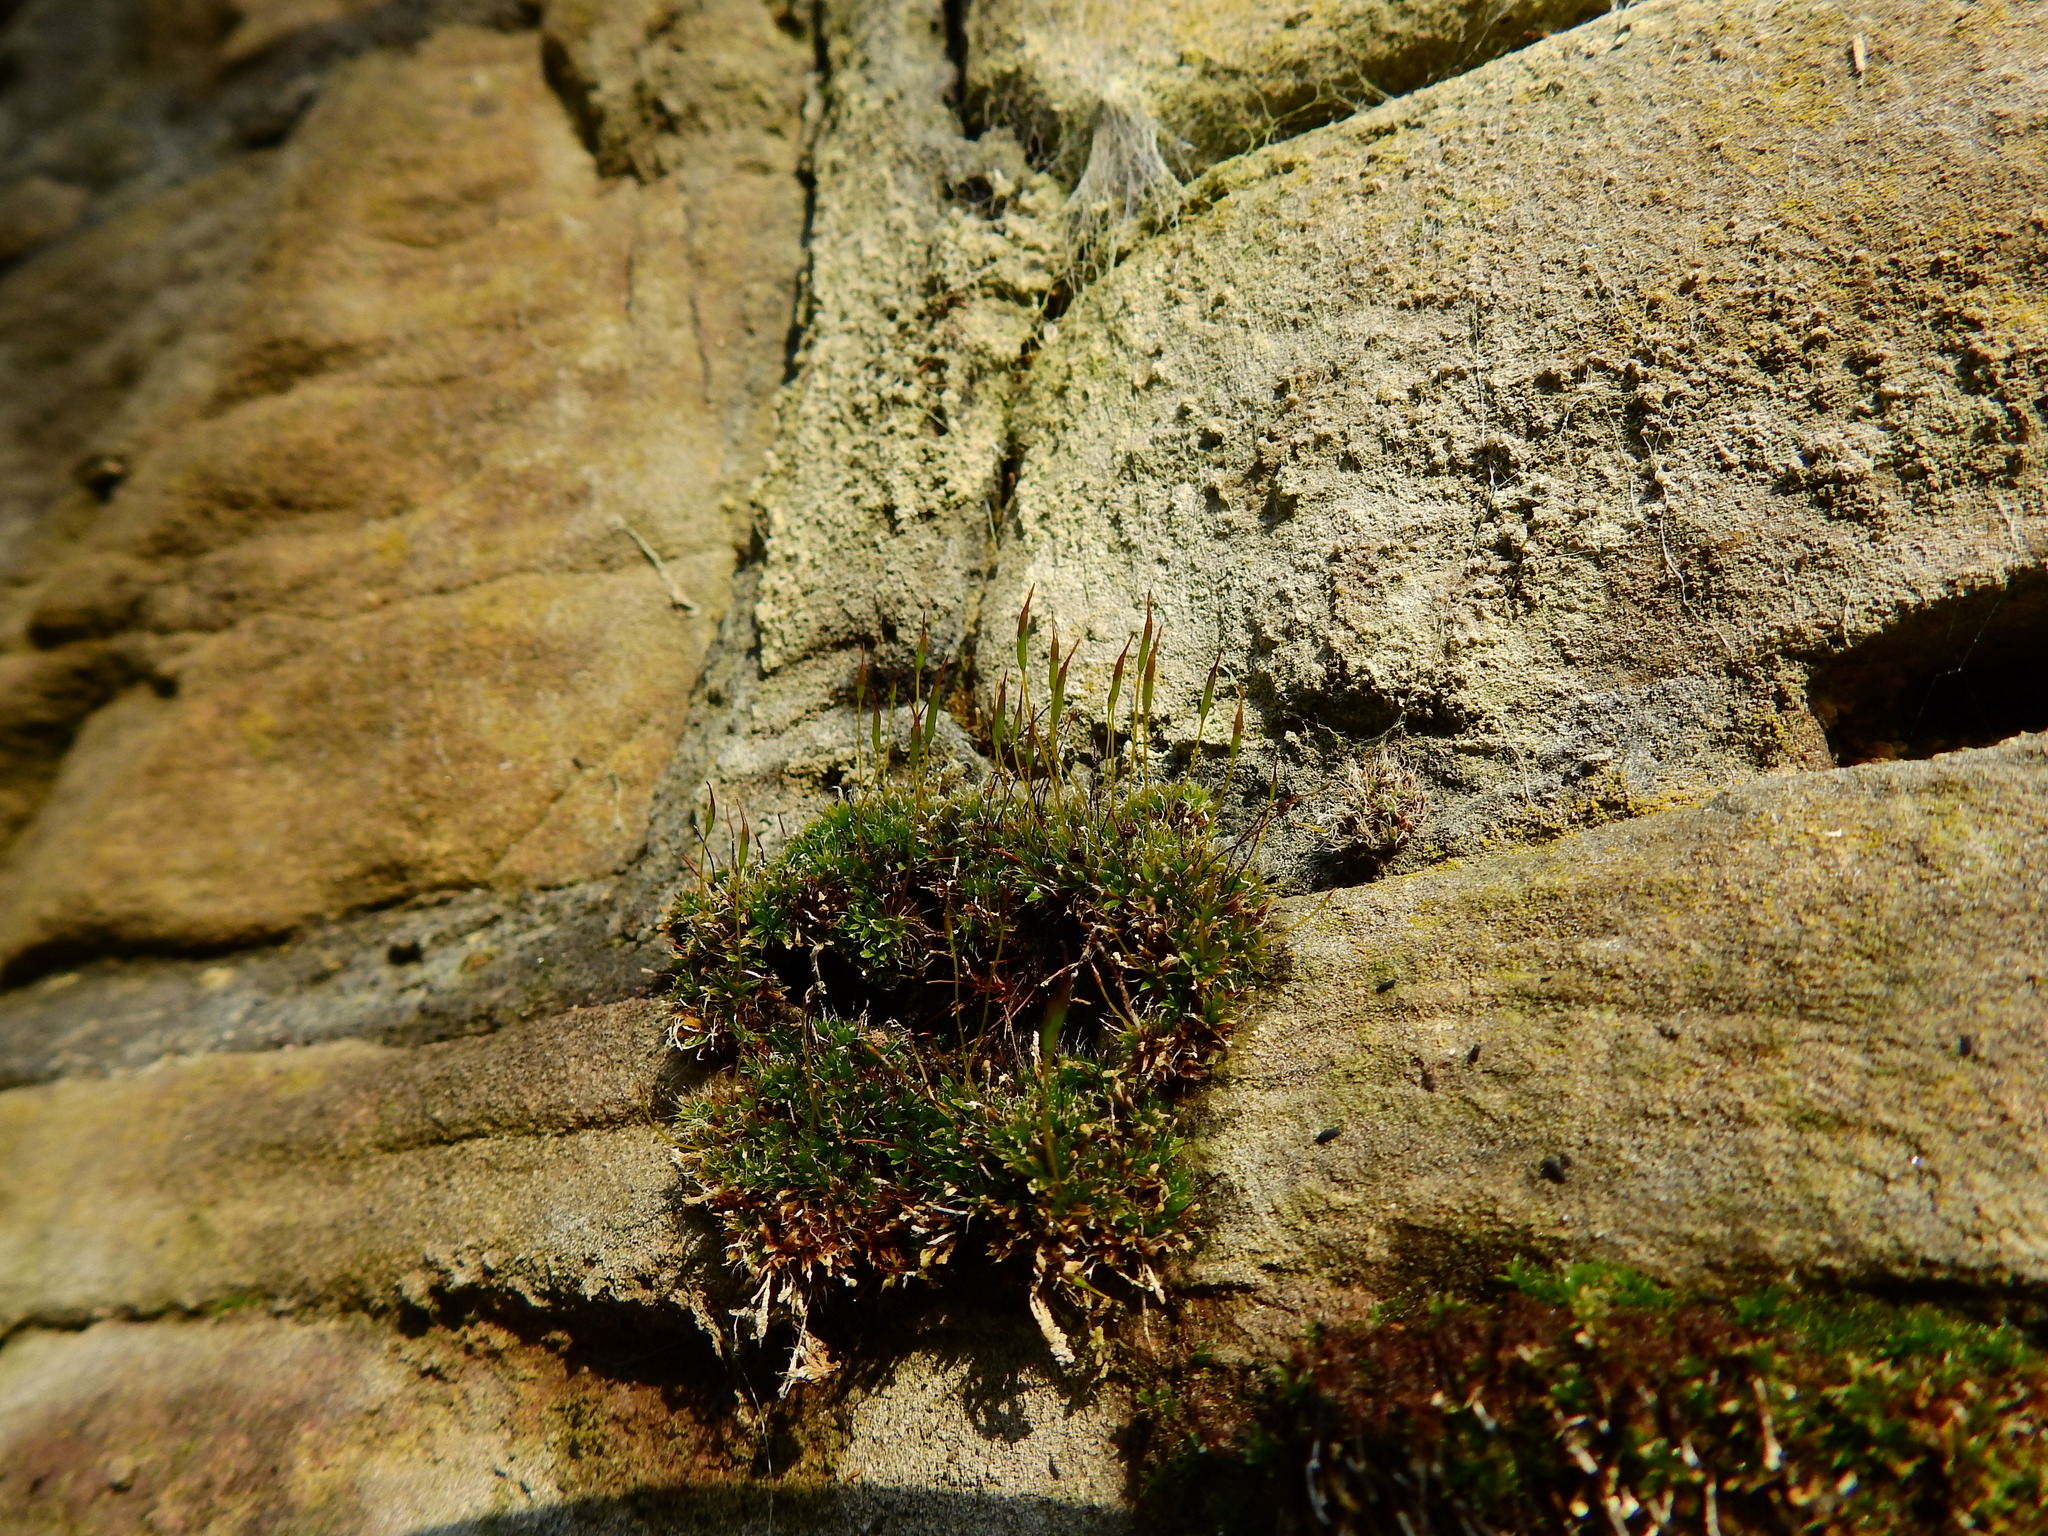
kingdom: Plantae
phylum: Bryophyta
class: Bryopsida
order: Pottiales
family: Pottiaceae
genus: Tortula
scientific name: Tortula muralis
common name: Wall screw-moss
